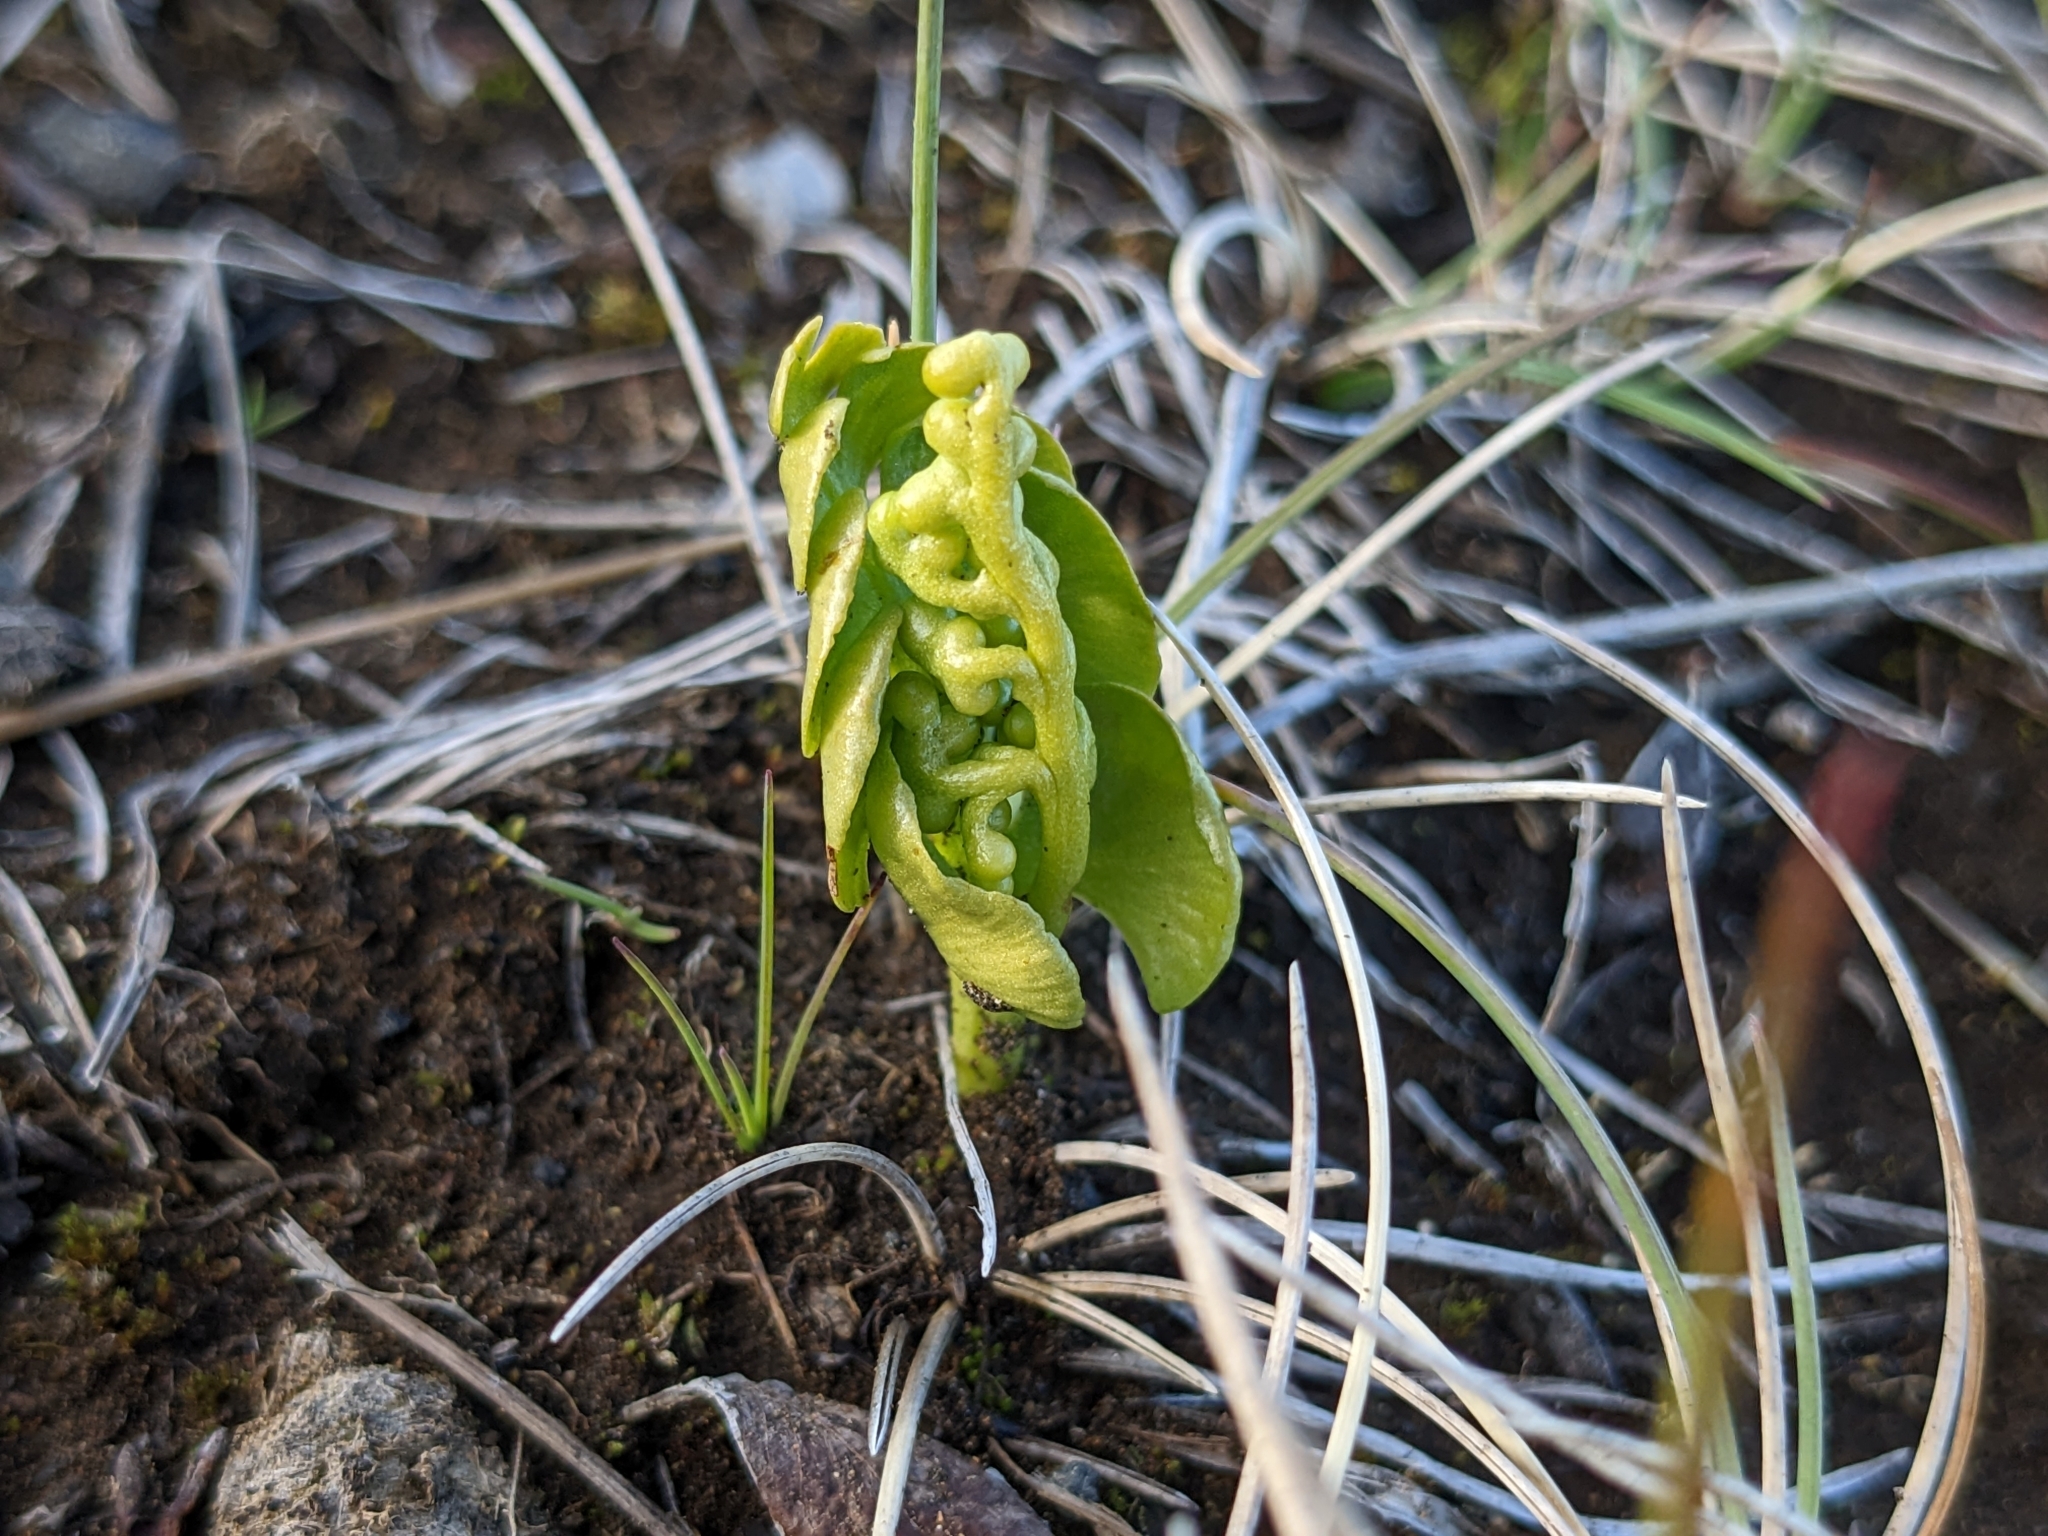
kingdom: Plantae
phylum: Tracheophyta
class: Polypodiopsida
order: Ophioglossales
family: Ophioglossaceae
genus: Botrychium
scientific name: Botrychium lunaria
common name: Moonwort
